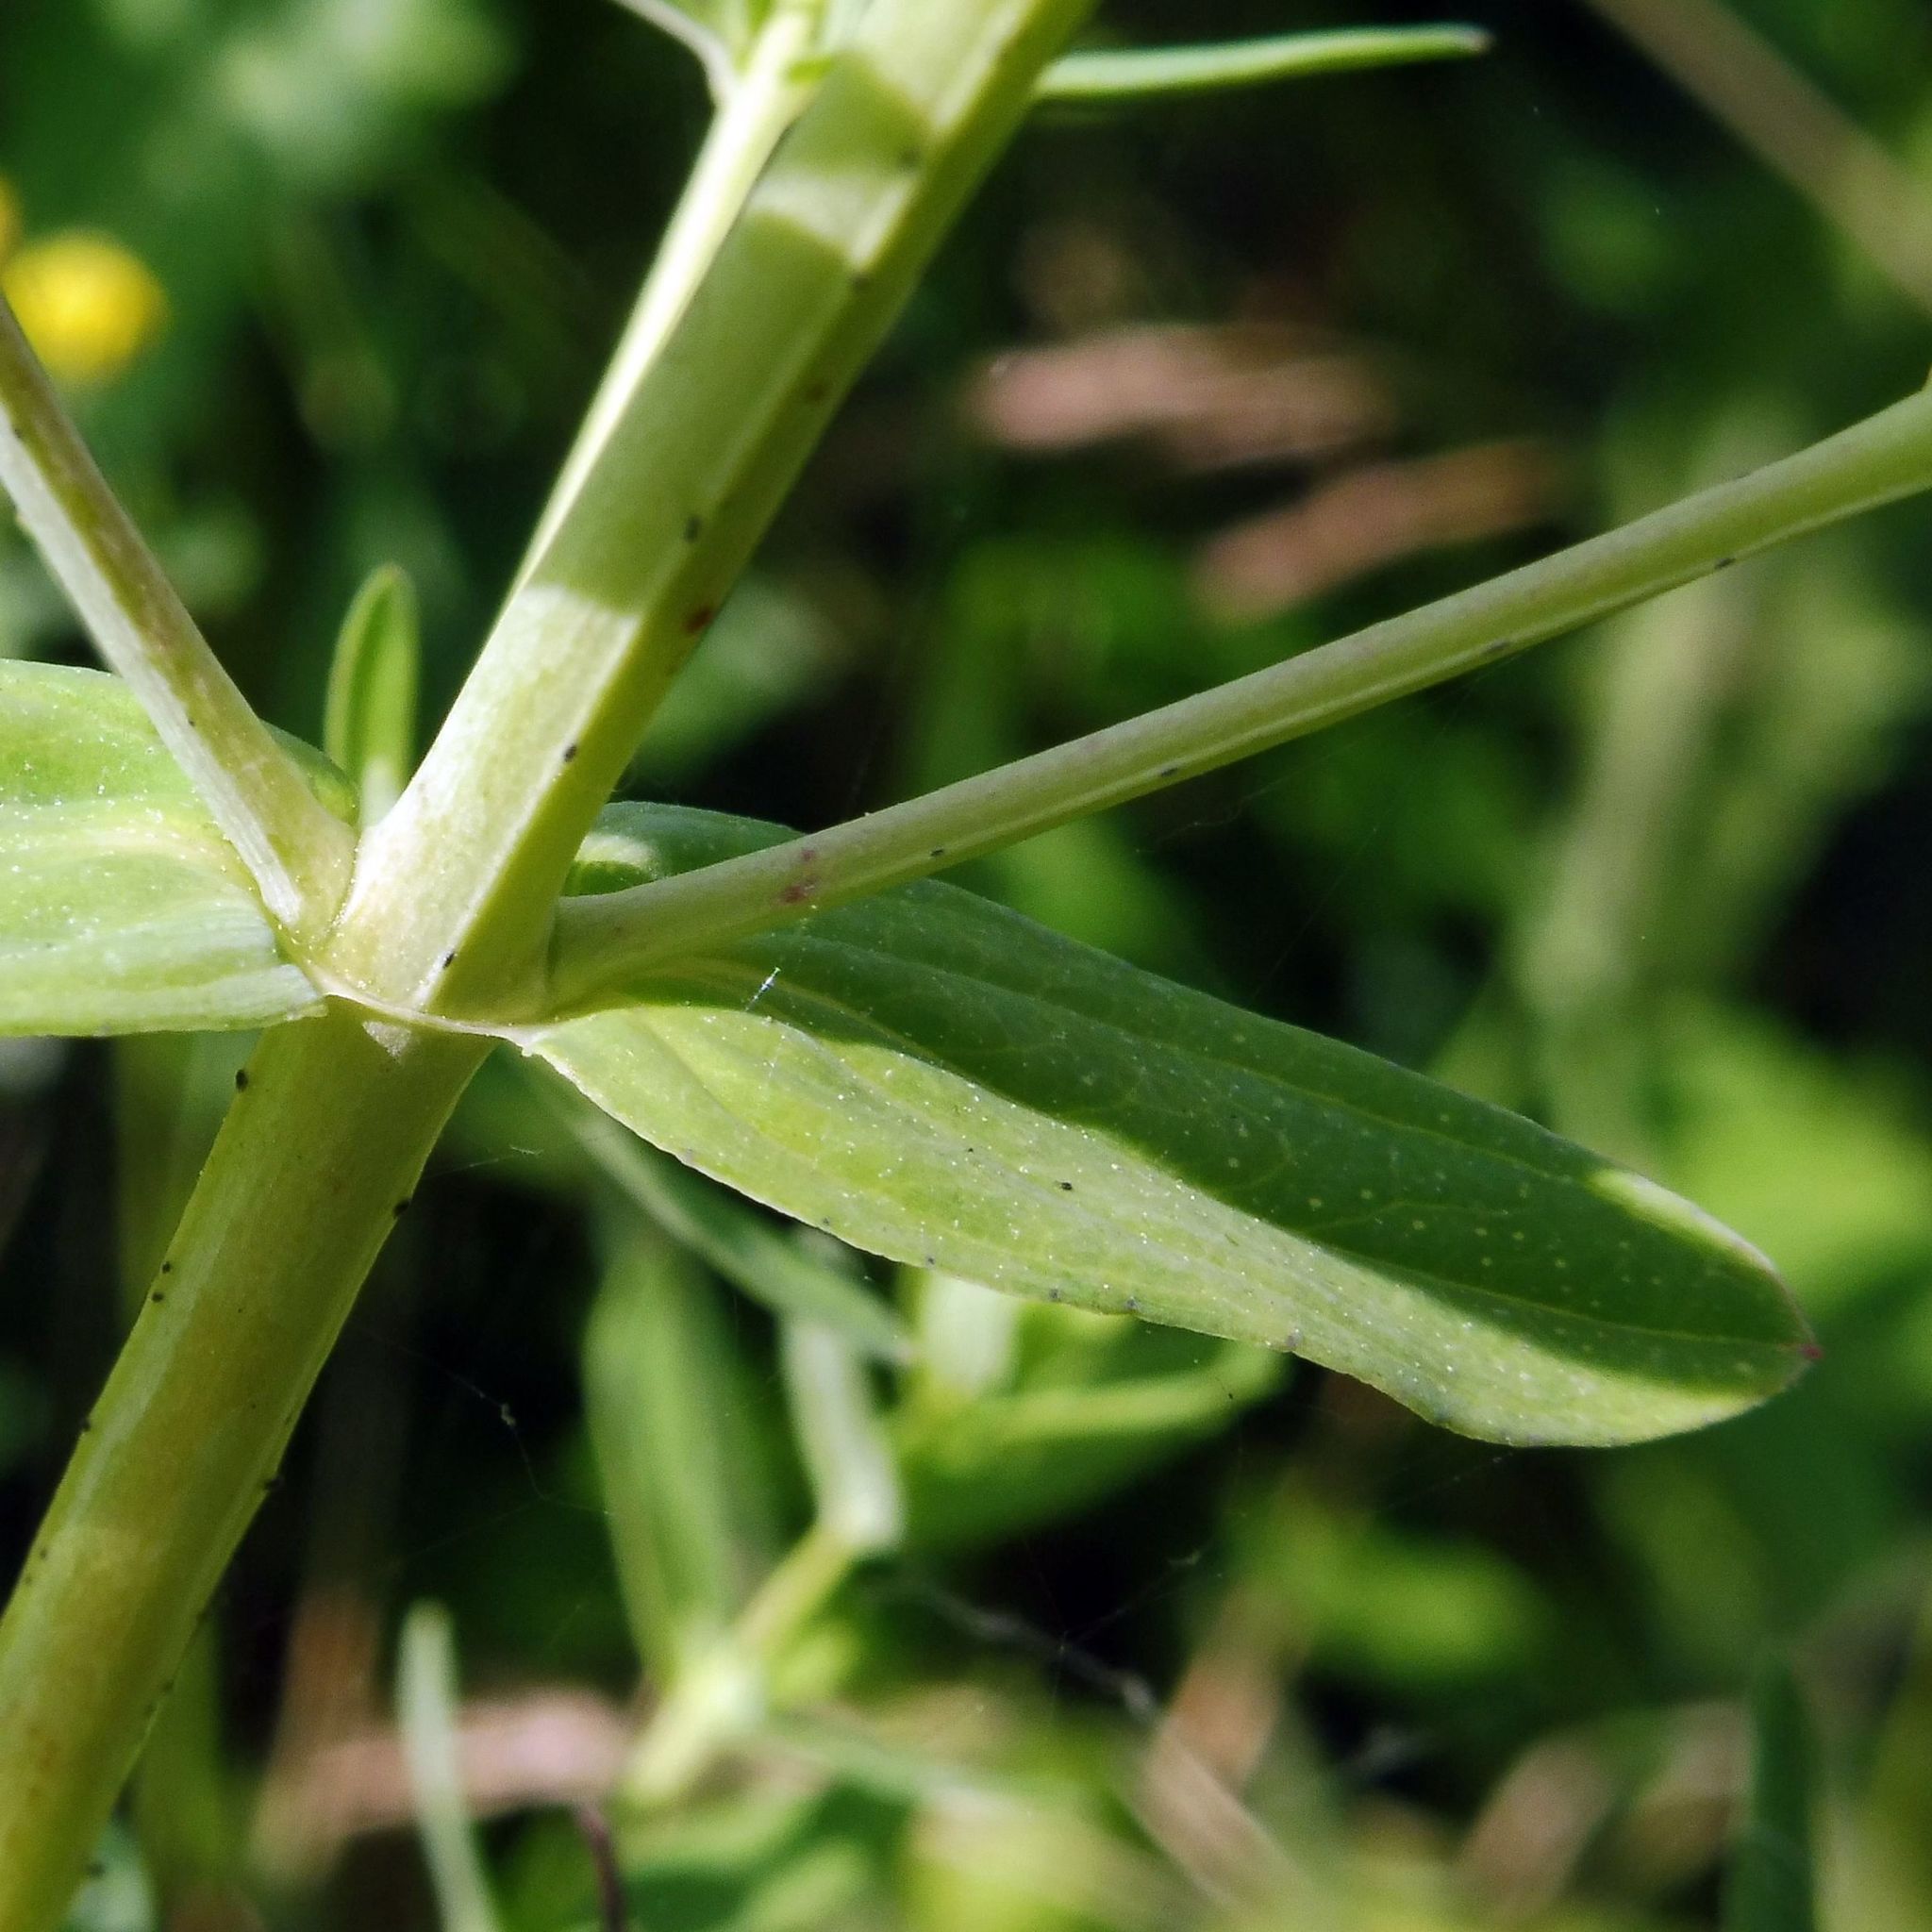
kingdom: Plantae
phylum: Tracheophyta
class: Magnoliopsida
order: Malpighiales
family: Hypericaceae
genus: Hypericum
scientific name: Hypericum perforatum
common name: Common st. johnswort
